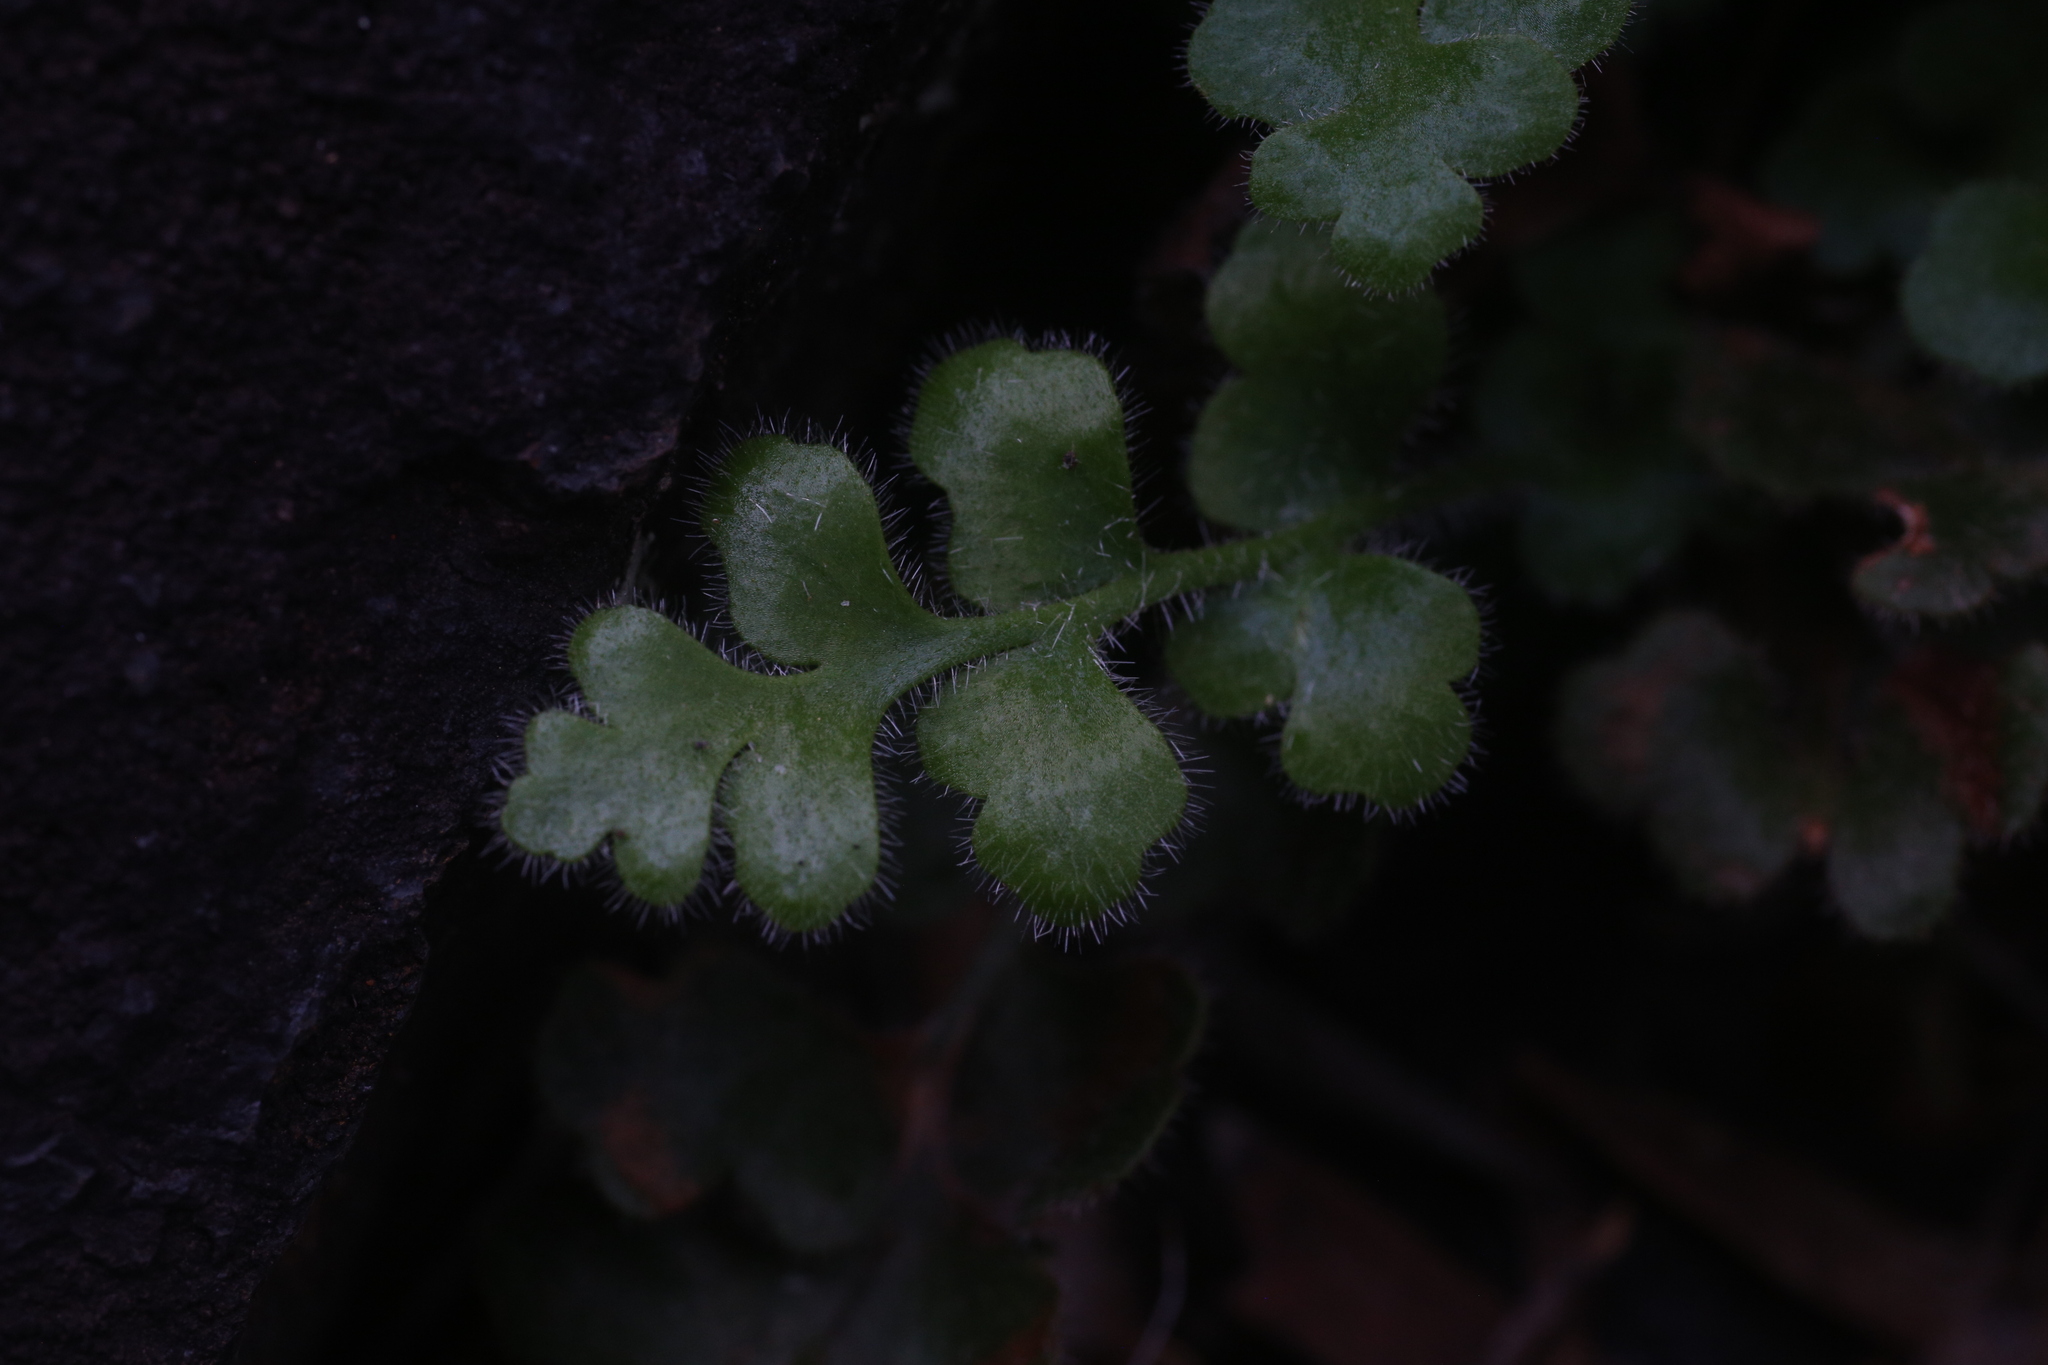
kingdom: Plantae
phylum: Tracheophyta
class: Polypodiopsida
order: Polypodiales
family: Aspleniaceae
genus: Asplenium
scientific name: Asplenium subglandulosum
